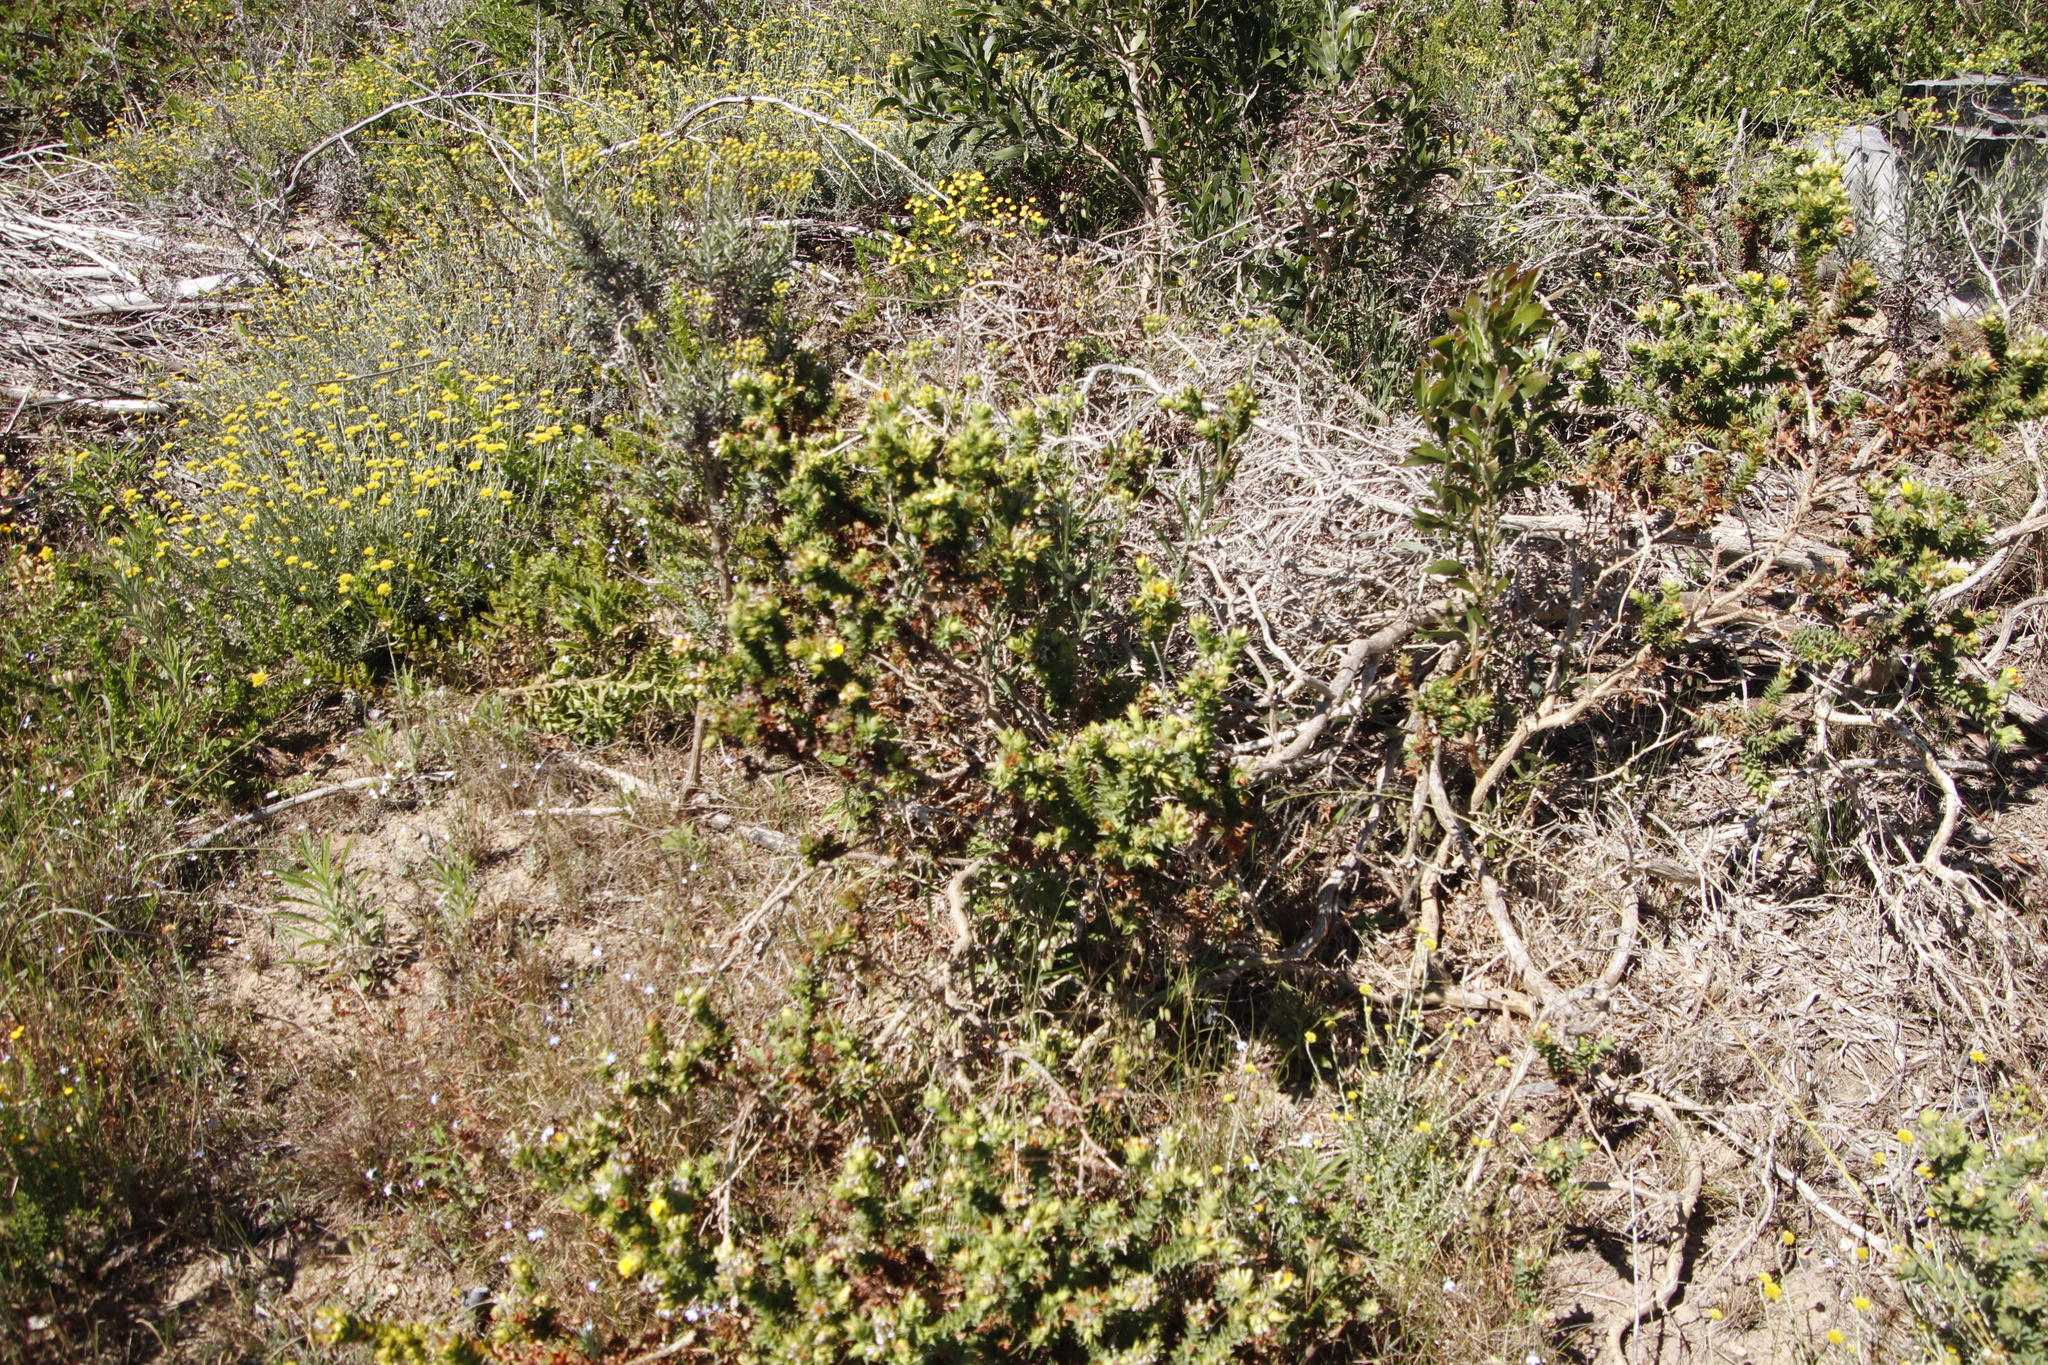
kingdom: Plantae
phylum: Tracheophyta
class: Magnoliopsida
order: Fabales
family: Fabaceae
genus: Aspalathus
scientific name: Aspalathus cordata
